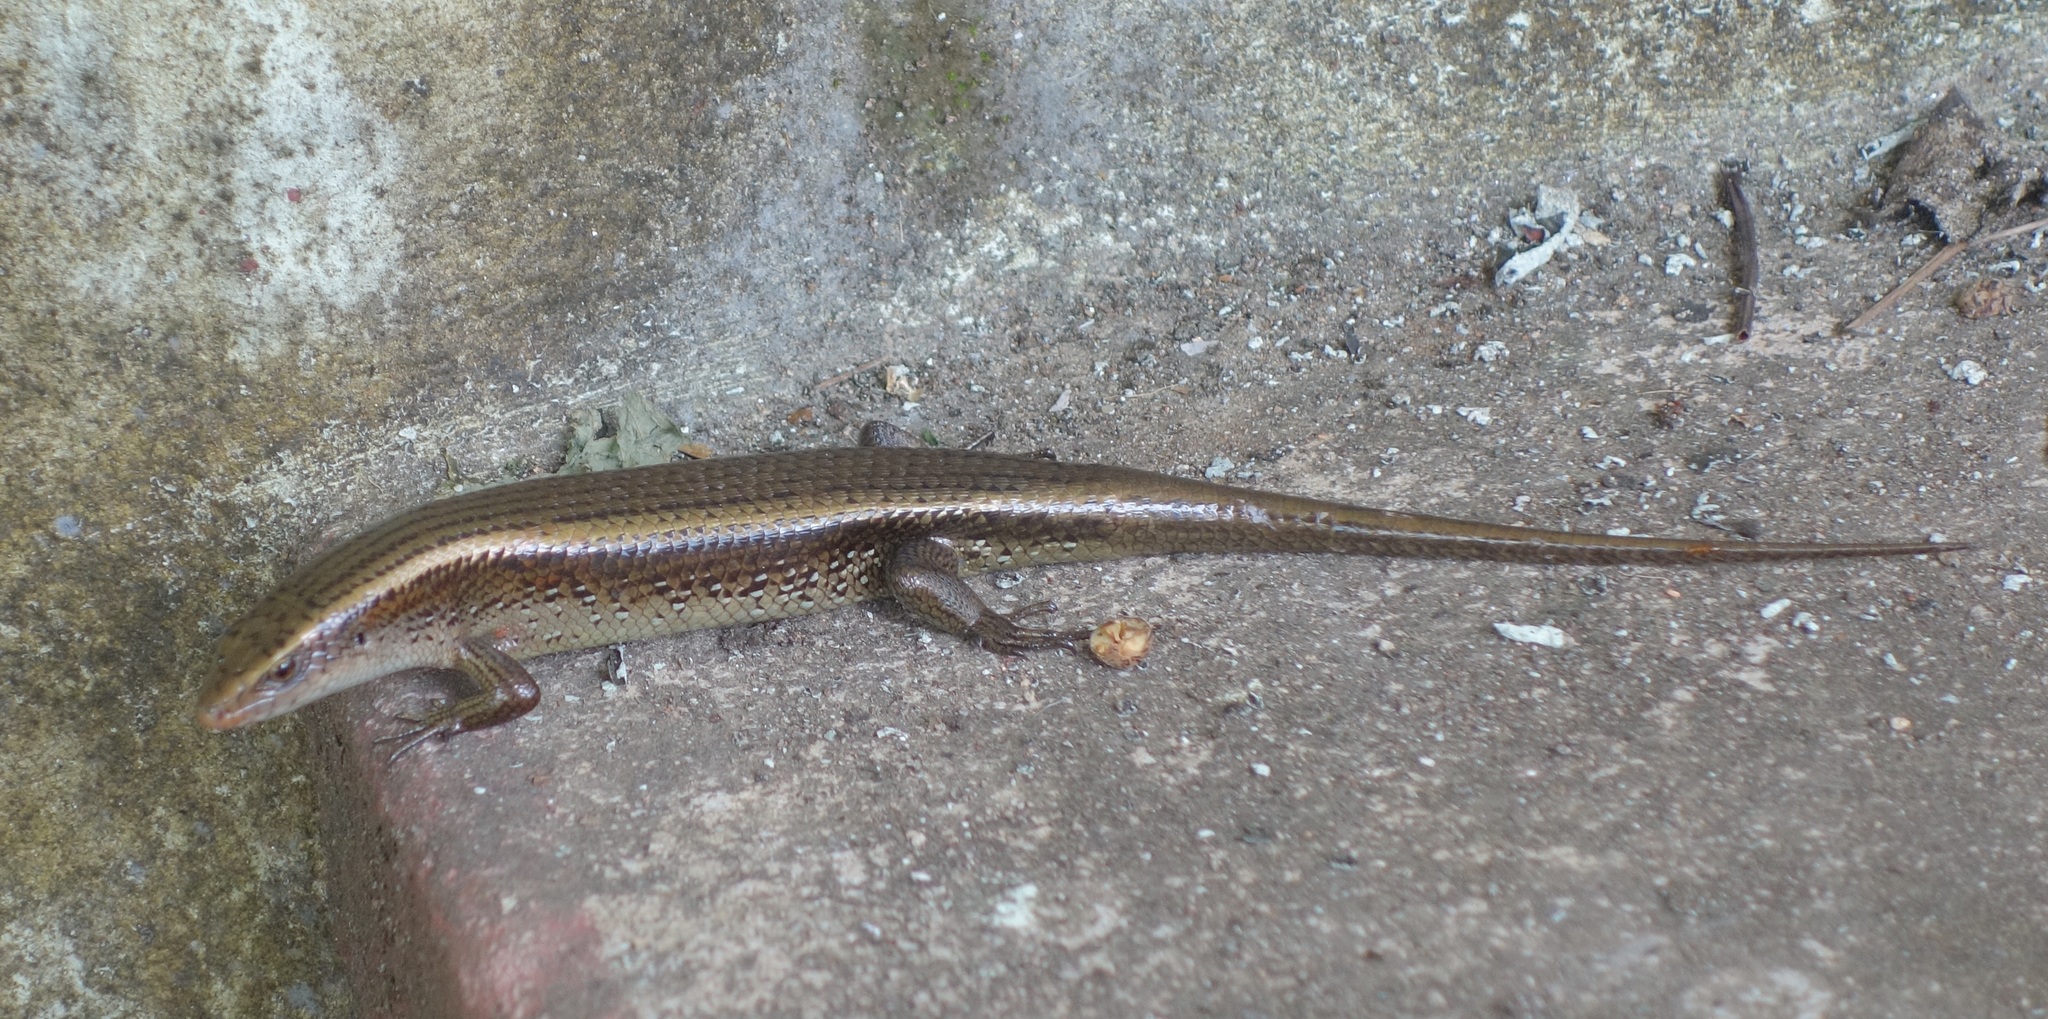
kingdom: Animalia
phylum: Chordata
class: Squamata
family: Scincidae
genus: Eutropis
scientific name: Eutropis multifasciata
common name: Common mabuya
